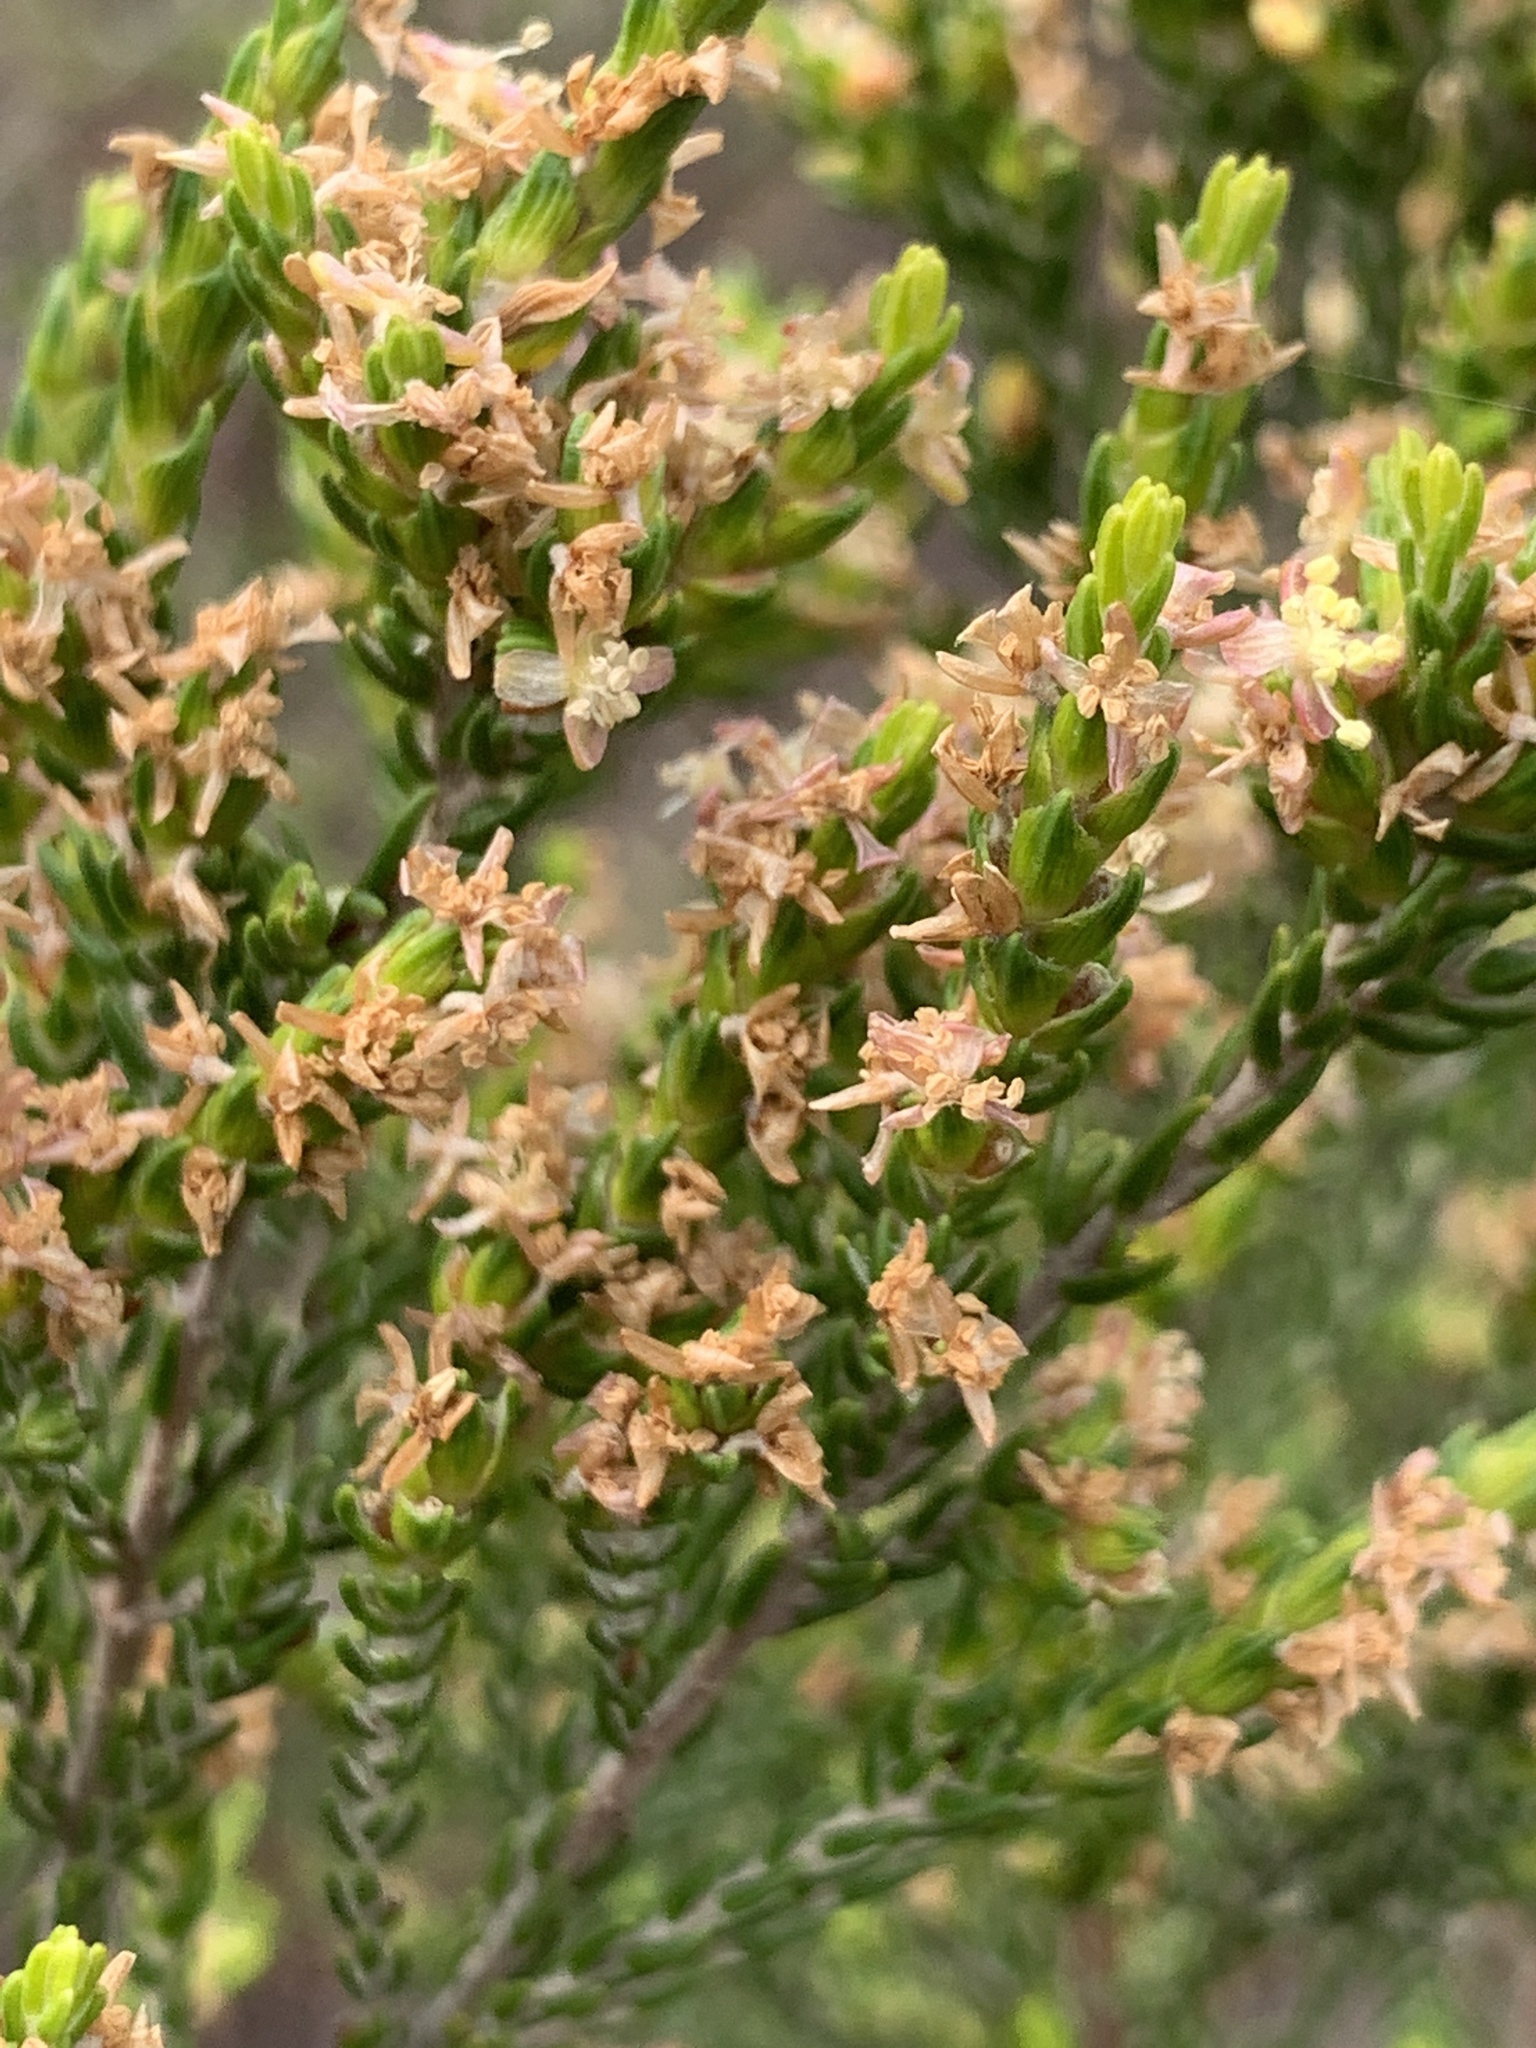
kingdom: Plantae
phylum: Tracheophyta
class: Magnoliopsida
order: Malvales
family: Thymelaeaceae
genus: Passerina
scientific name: Passerina corymbosa
